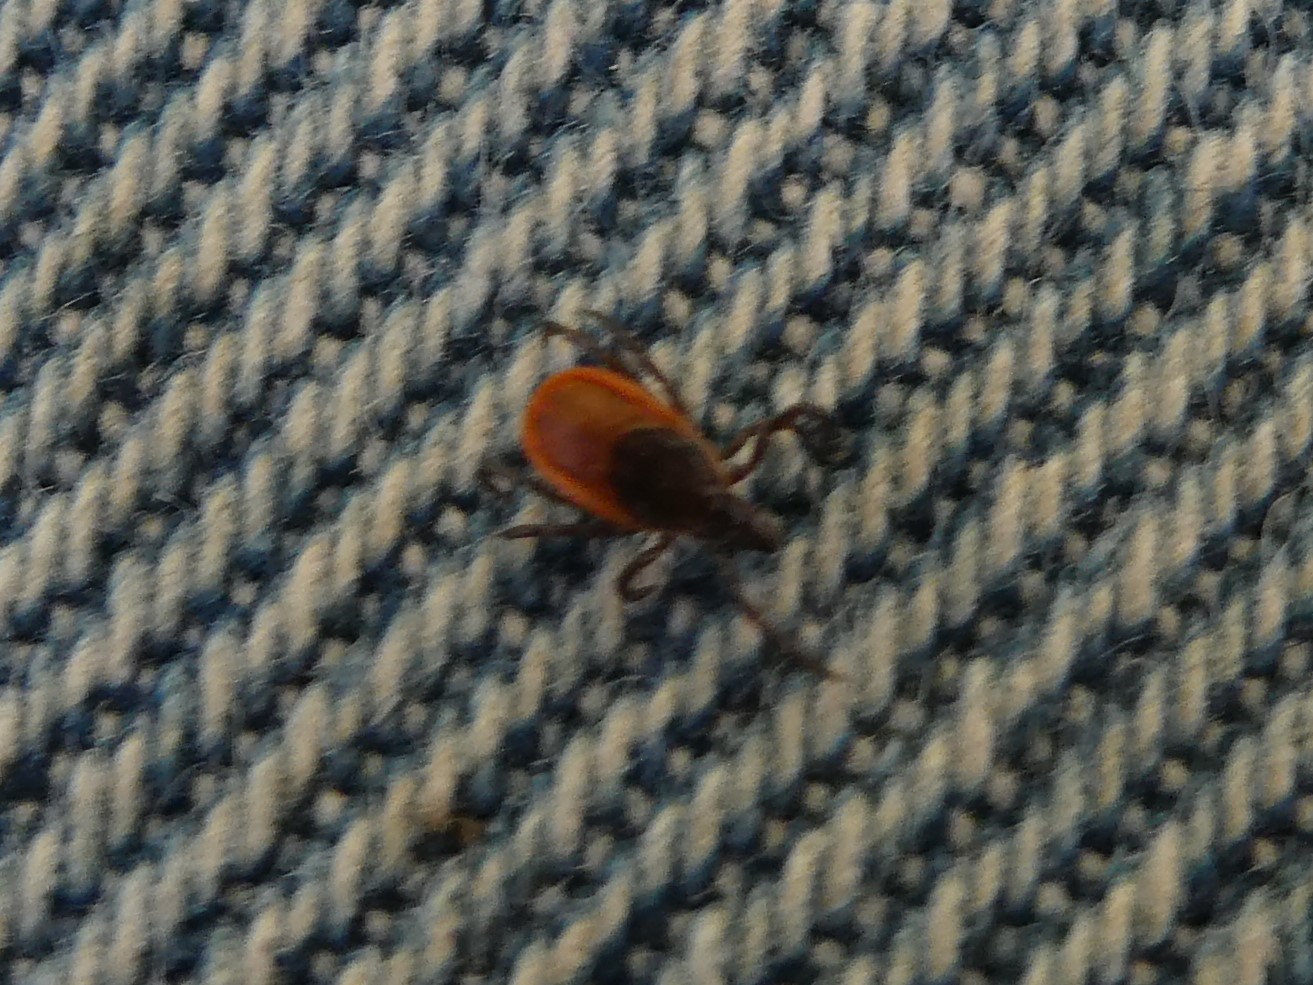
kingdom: Animalia
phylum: Arthropoda
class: Arachnida
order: Ixodida
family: Ixodidae
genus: Ixodes
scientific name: Ixodes scapularis
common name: Black legged tick
